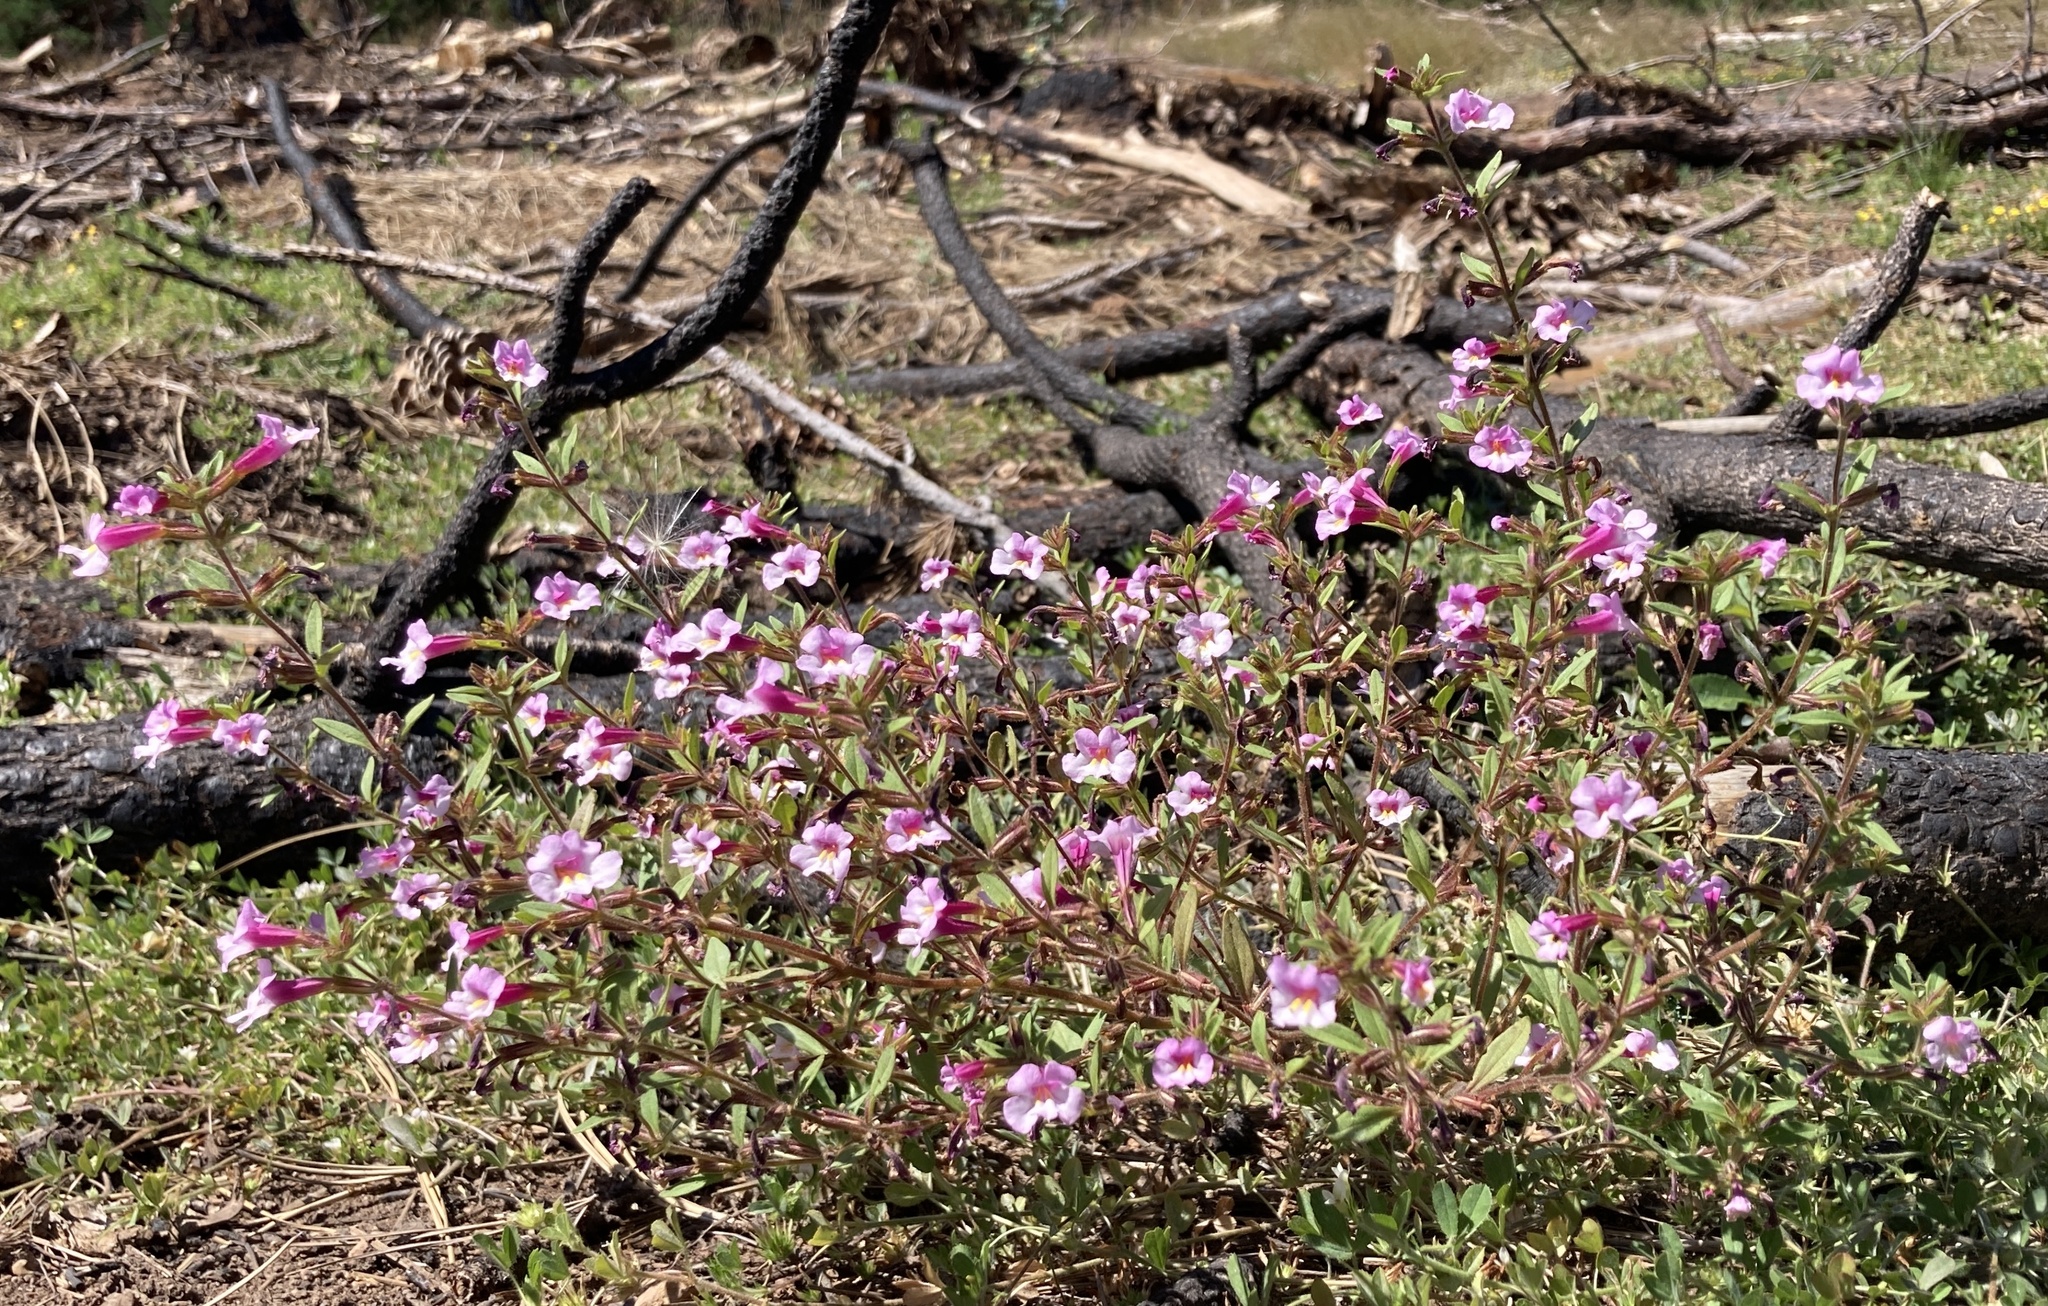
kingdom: Plantae
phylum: Tracheophyta
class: Magnoliopsida
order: Lamiales
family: Phrymaceae
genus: Diplacus
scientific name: Diplacus torreyi
